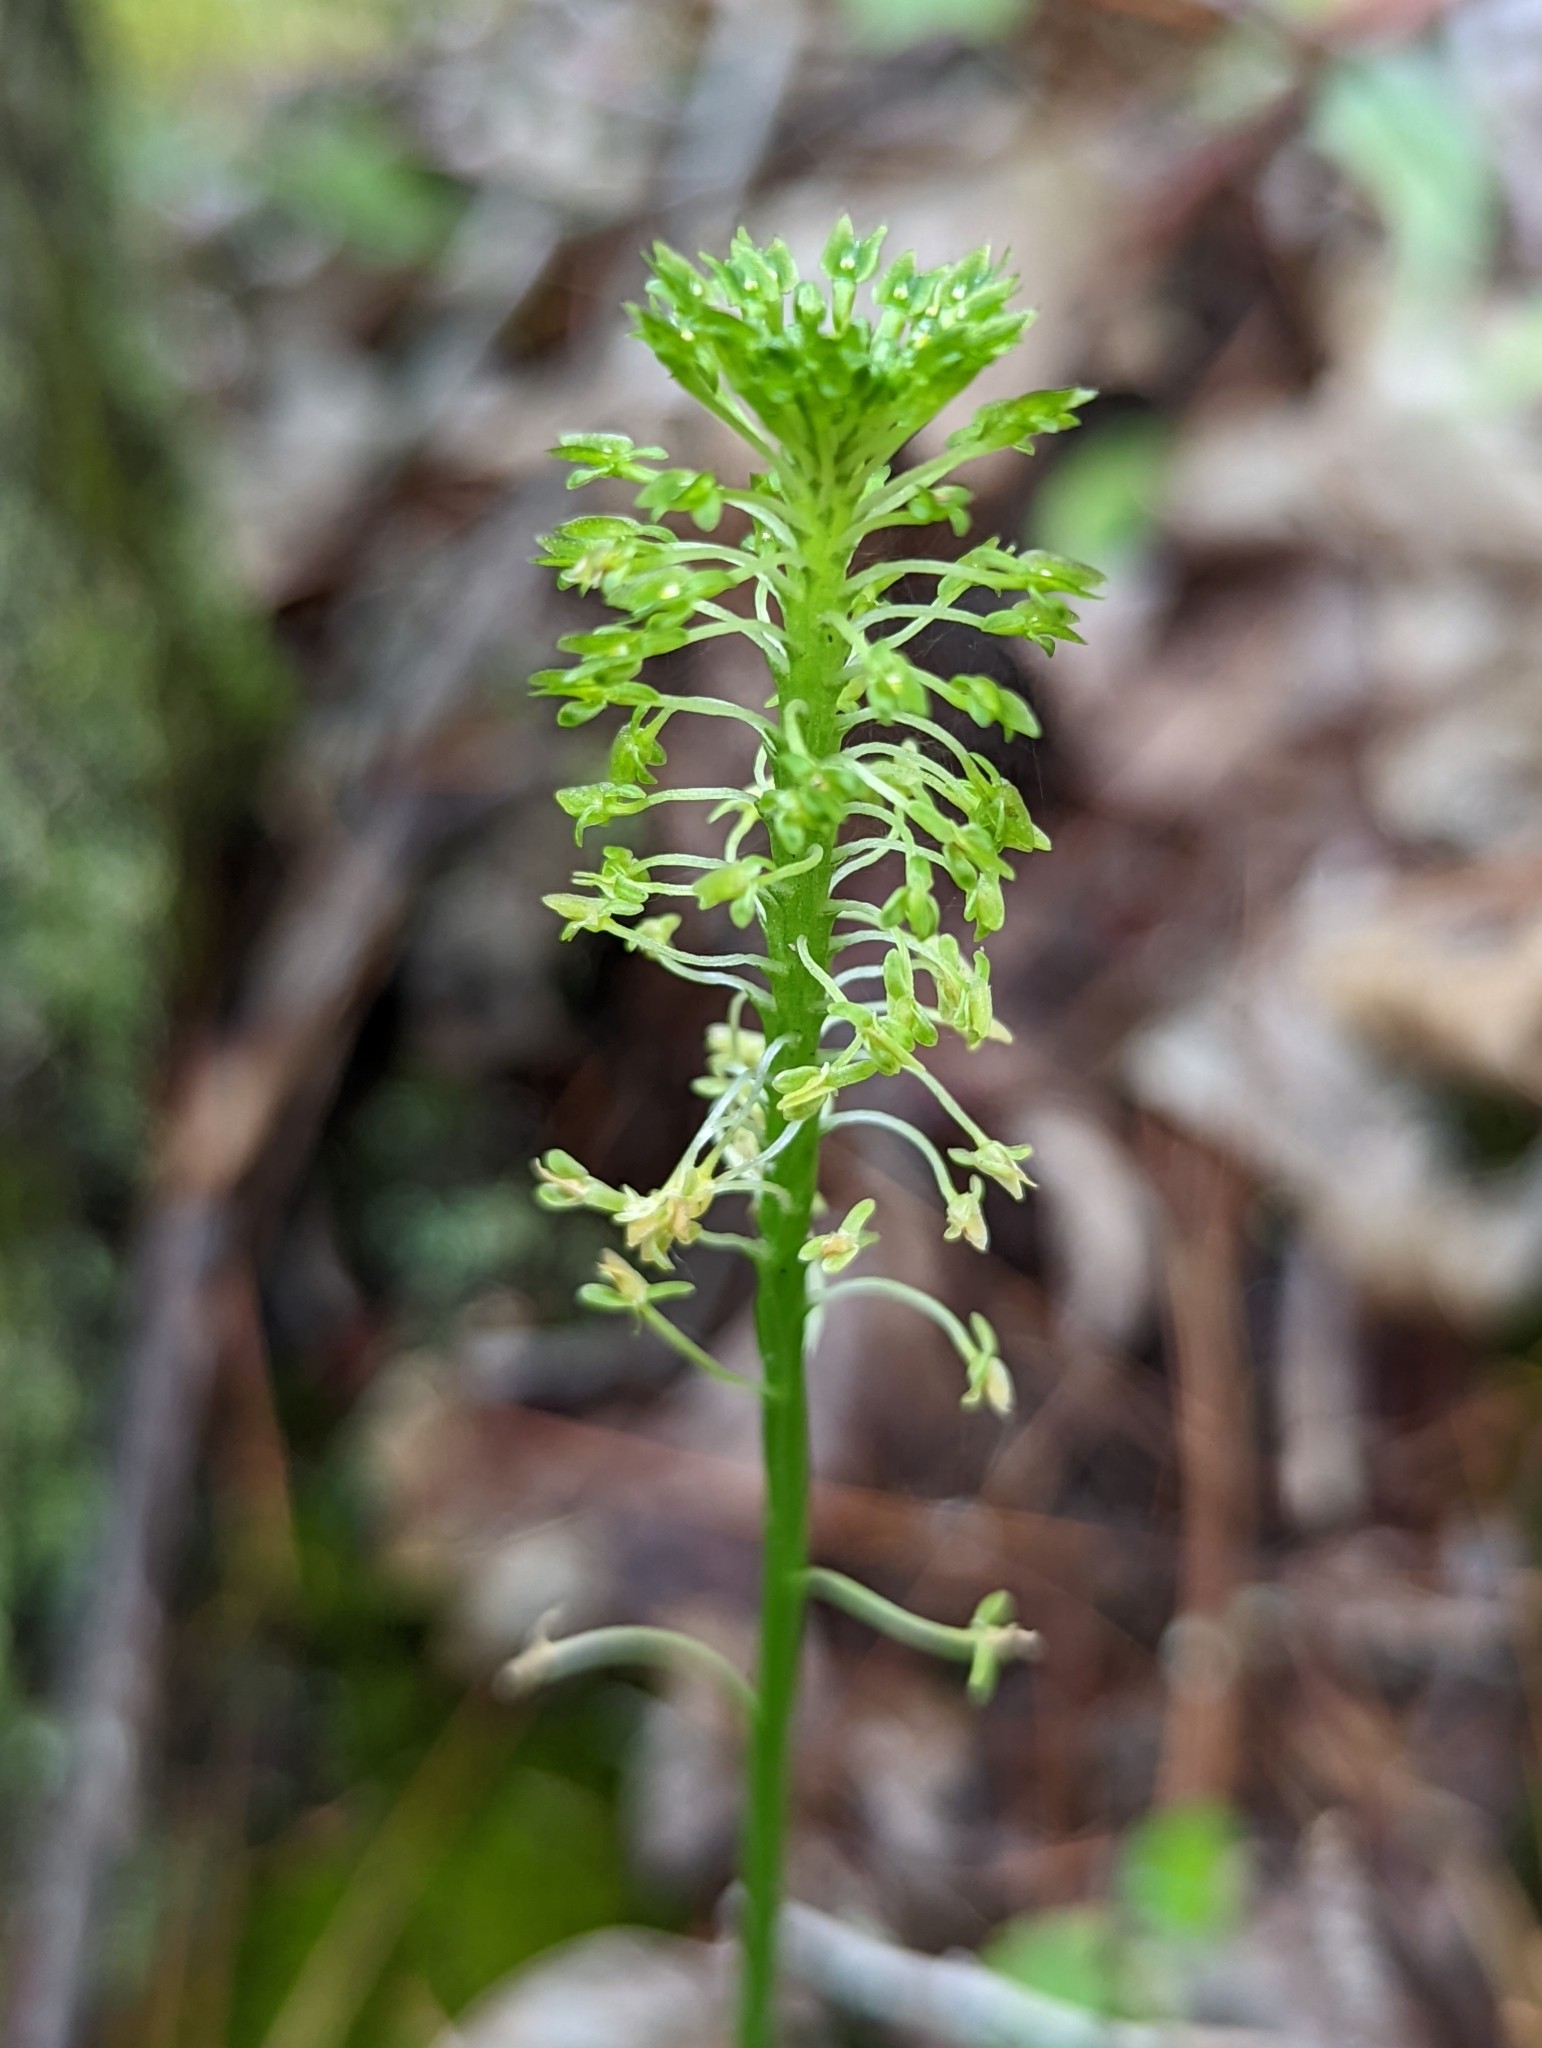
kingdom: Plantae
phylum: Tracheophyta
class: Liliopsida
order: Asparagales
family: Orchidaceae
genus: Malaxis
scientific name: Malaxis unifolia
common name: Green adder's-mouth
